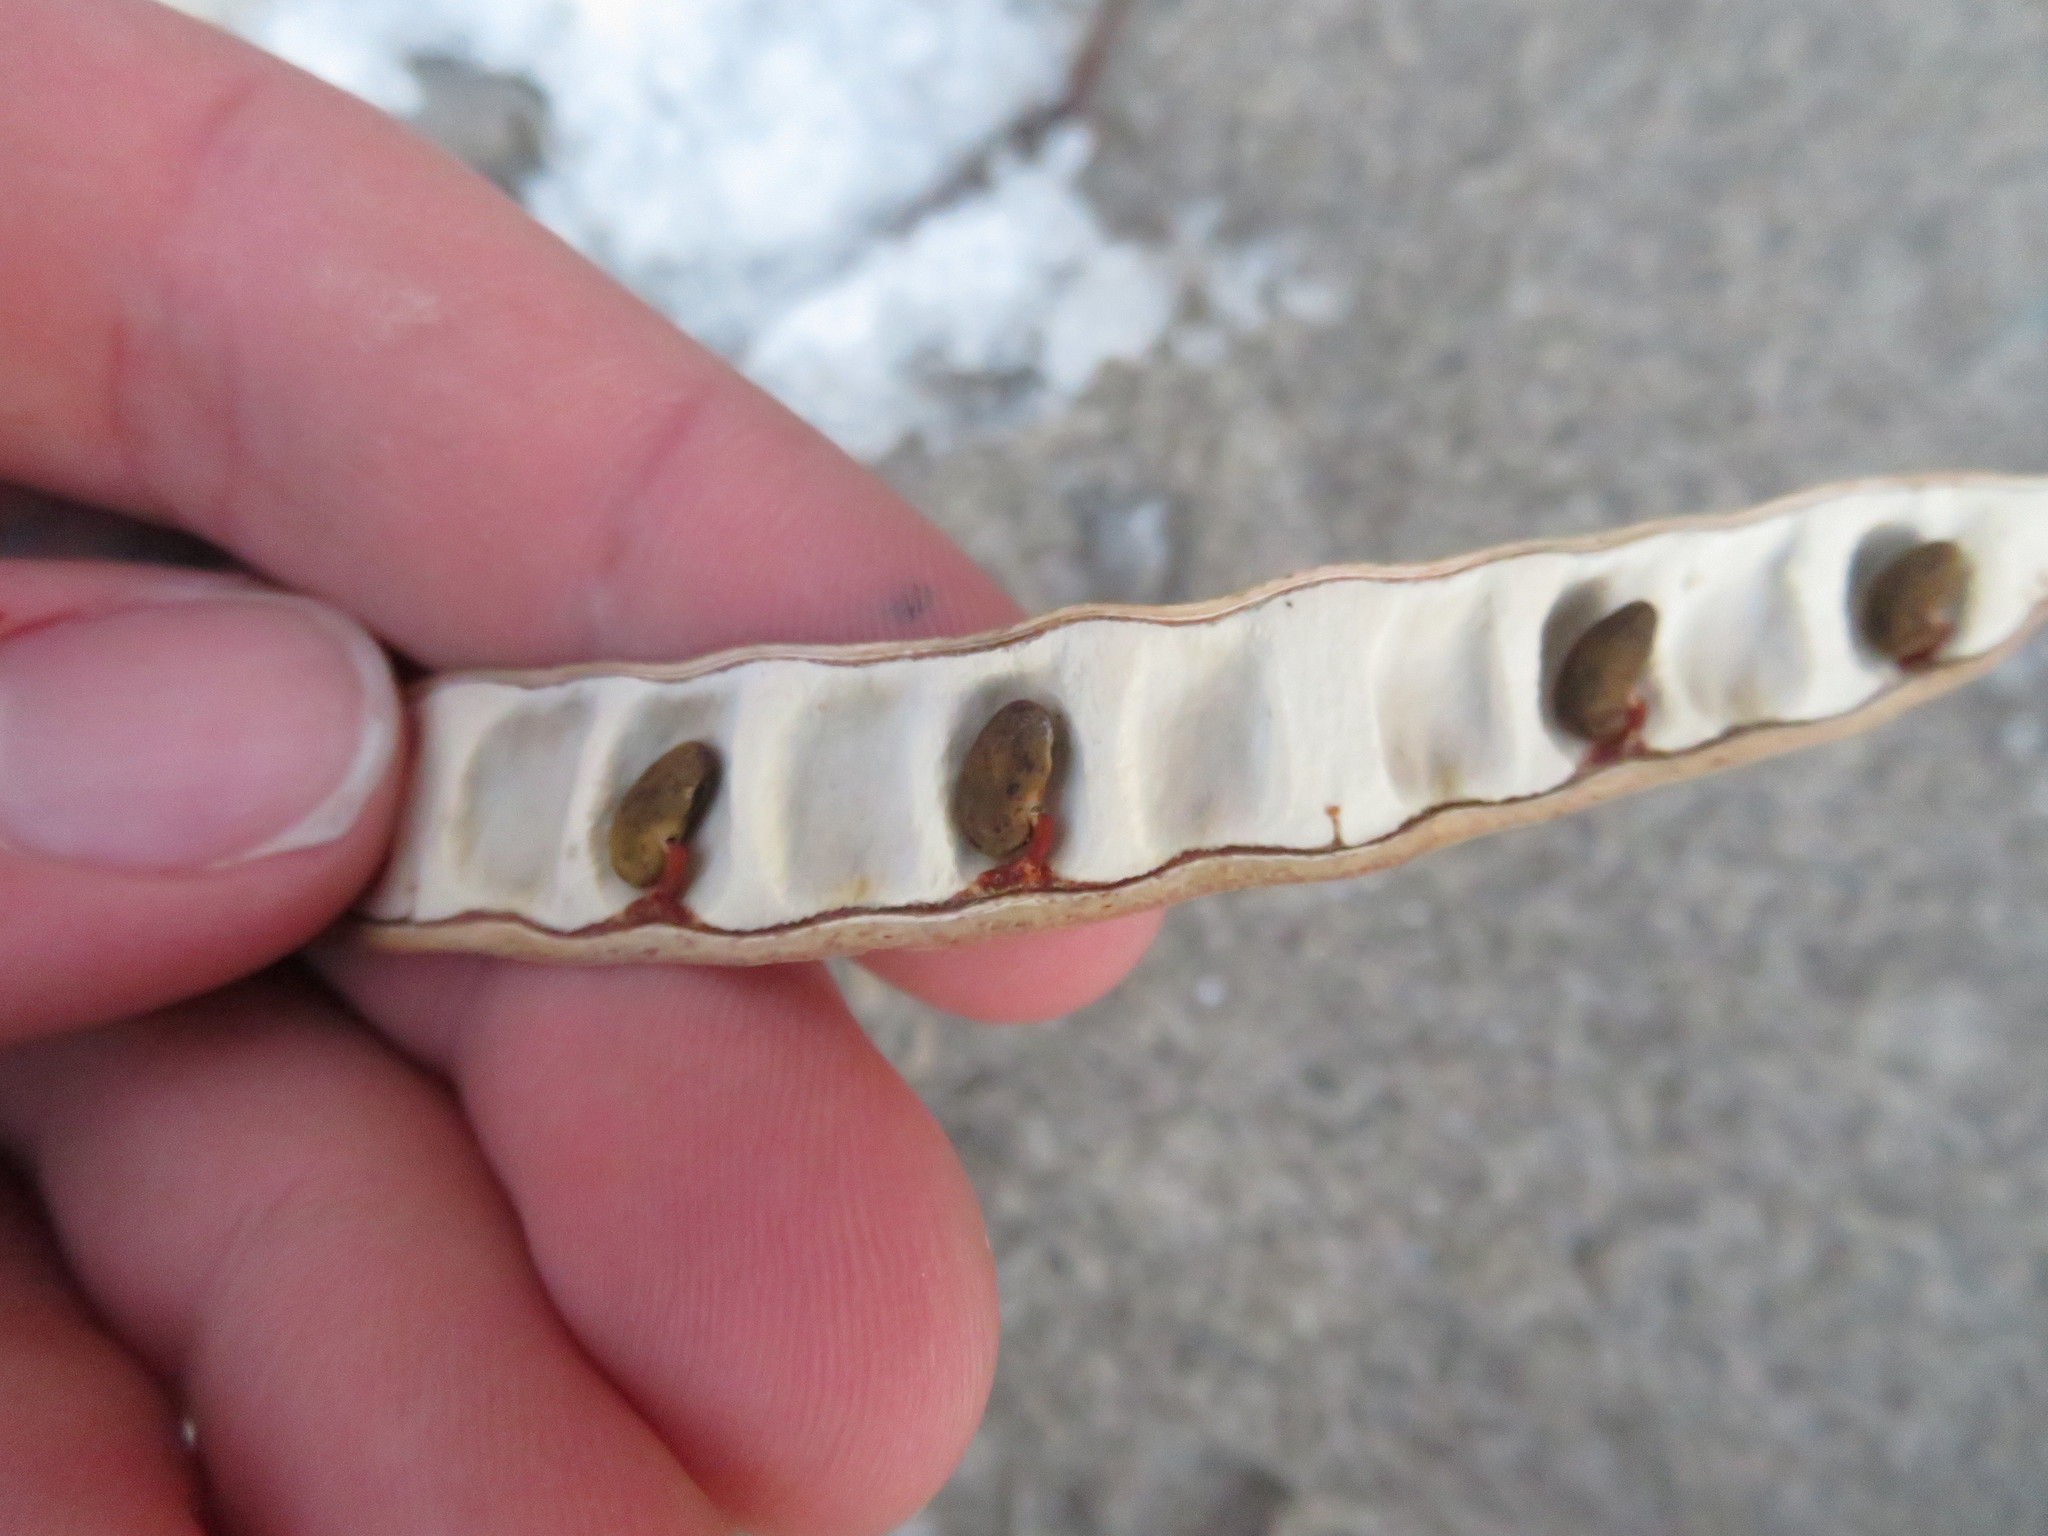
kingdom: Plantae
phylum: Tracheophyta
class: Magnoliopsida
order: Fabales
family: Fabaceae
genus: Robinia
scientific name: Robinia pseudoacacia
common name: Black locust
